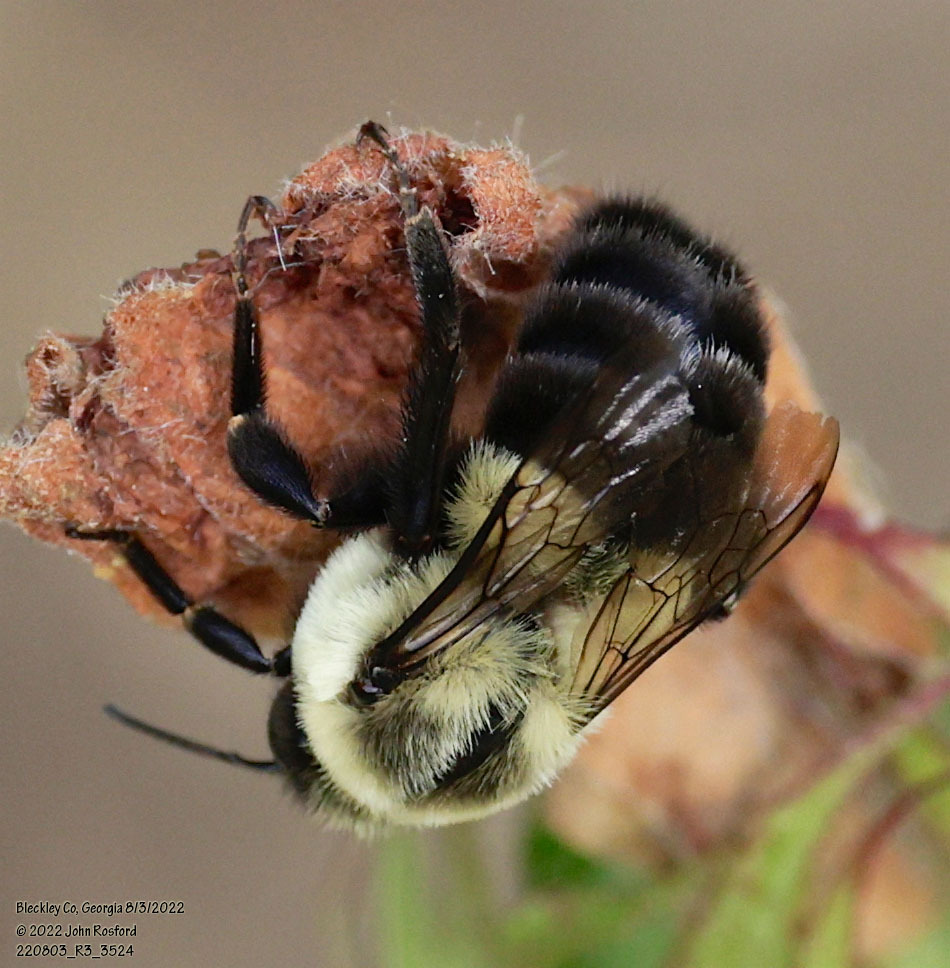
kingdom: Animalia
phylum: Arthropoda
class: Insecta
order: Hymenoptera
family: Apidae
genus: Bombus
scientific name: Bombus impatiens
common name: Common eastern bumble bee
